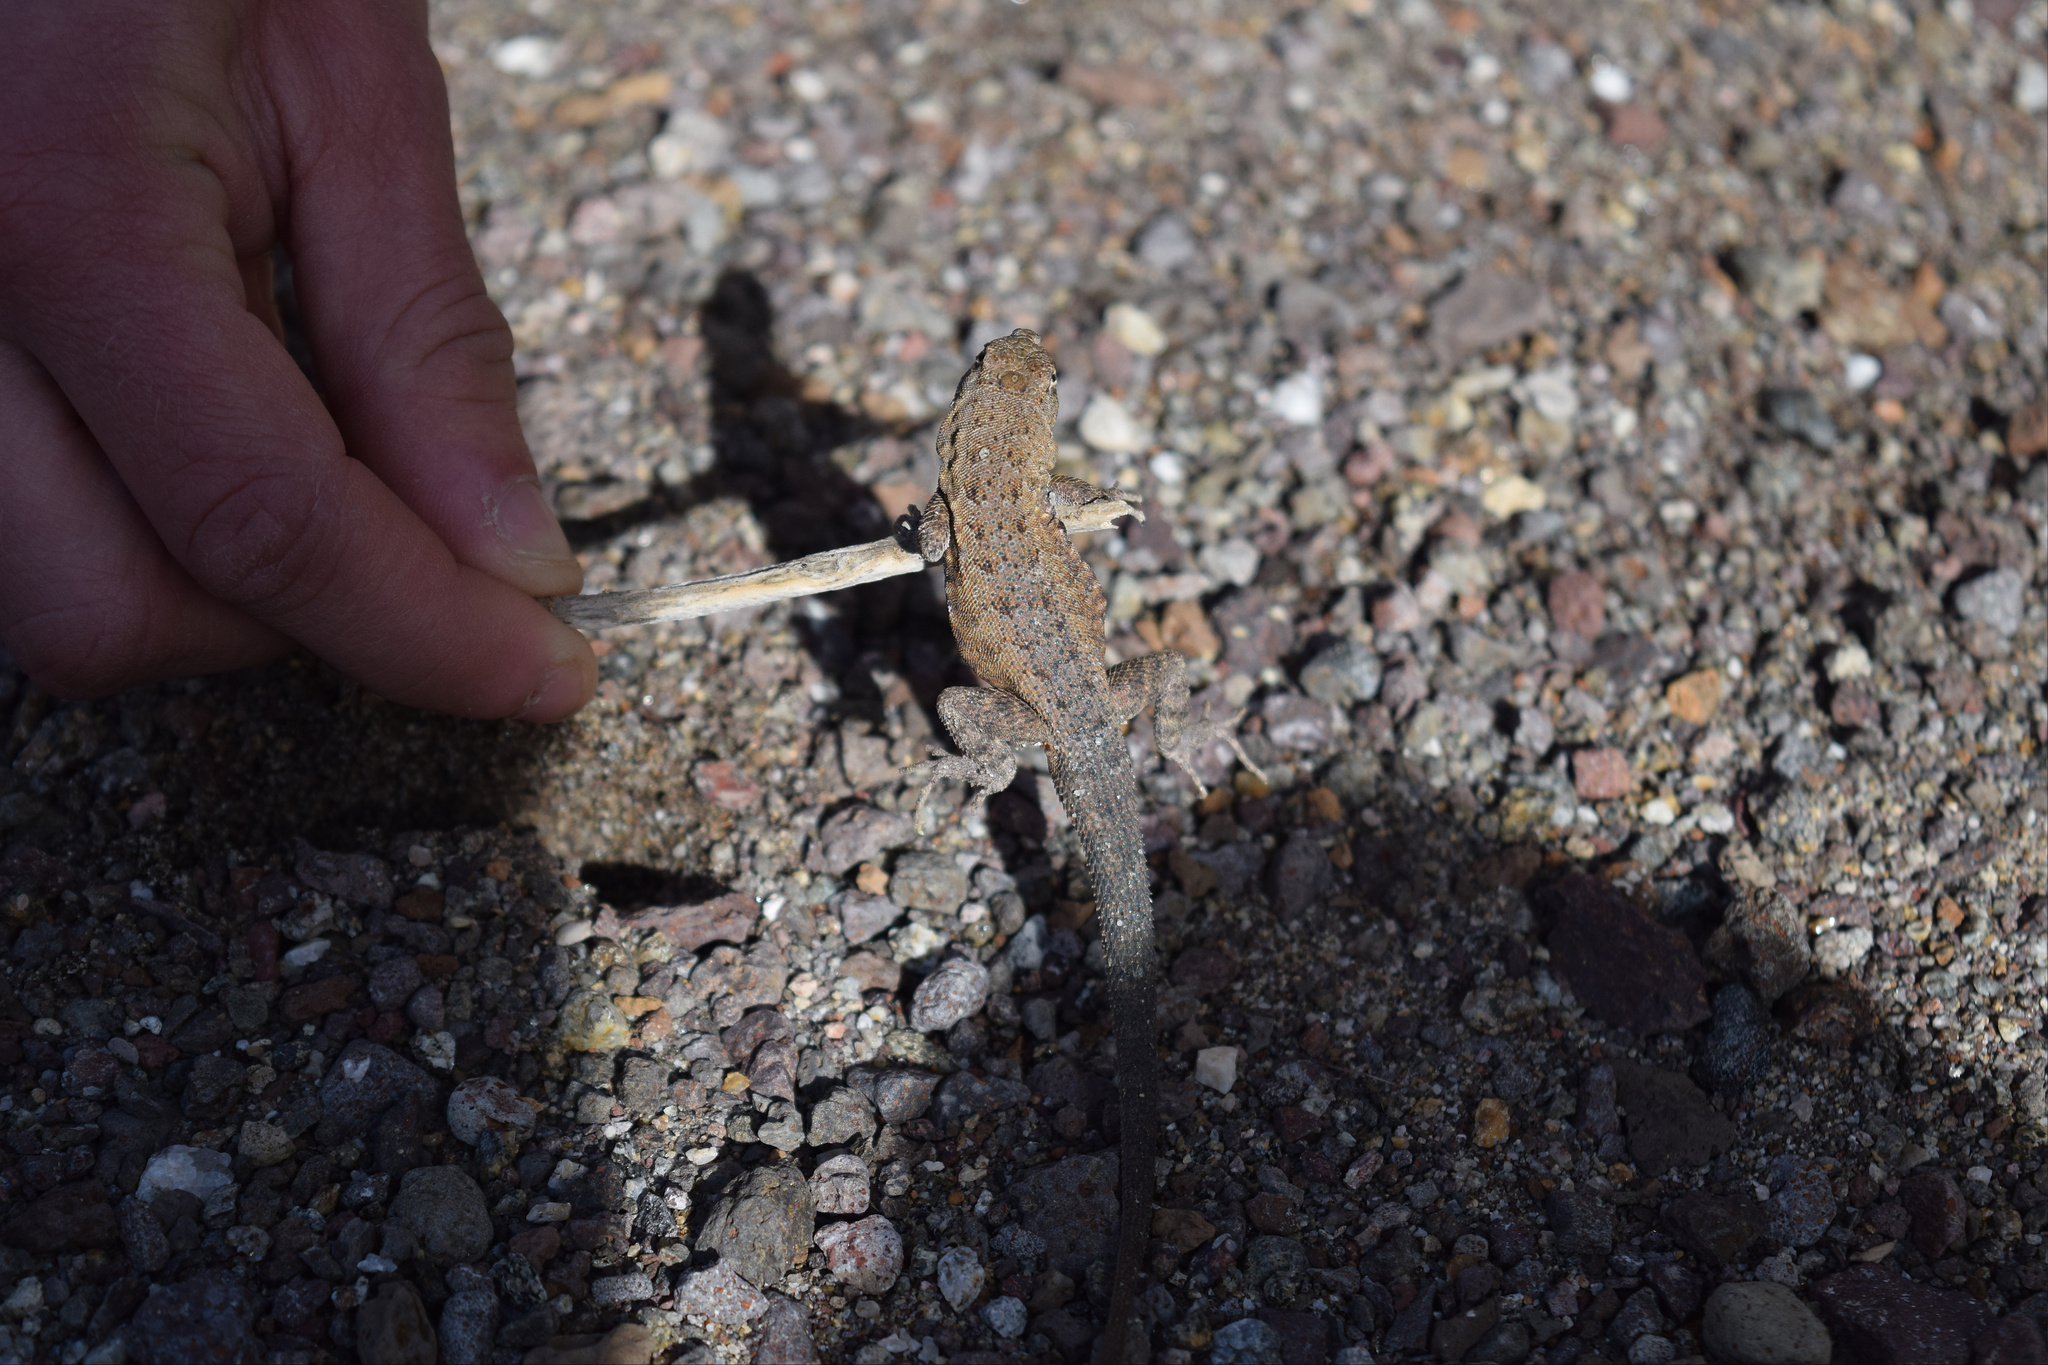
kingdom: Animalia
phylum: Chordata
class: Squamata
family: Phrynosomatidae
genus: Uta
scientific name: Uta stansburiana
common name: Side-blotched lizard
